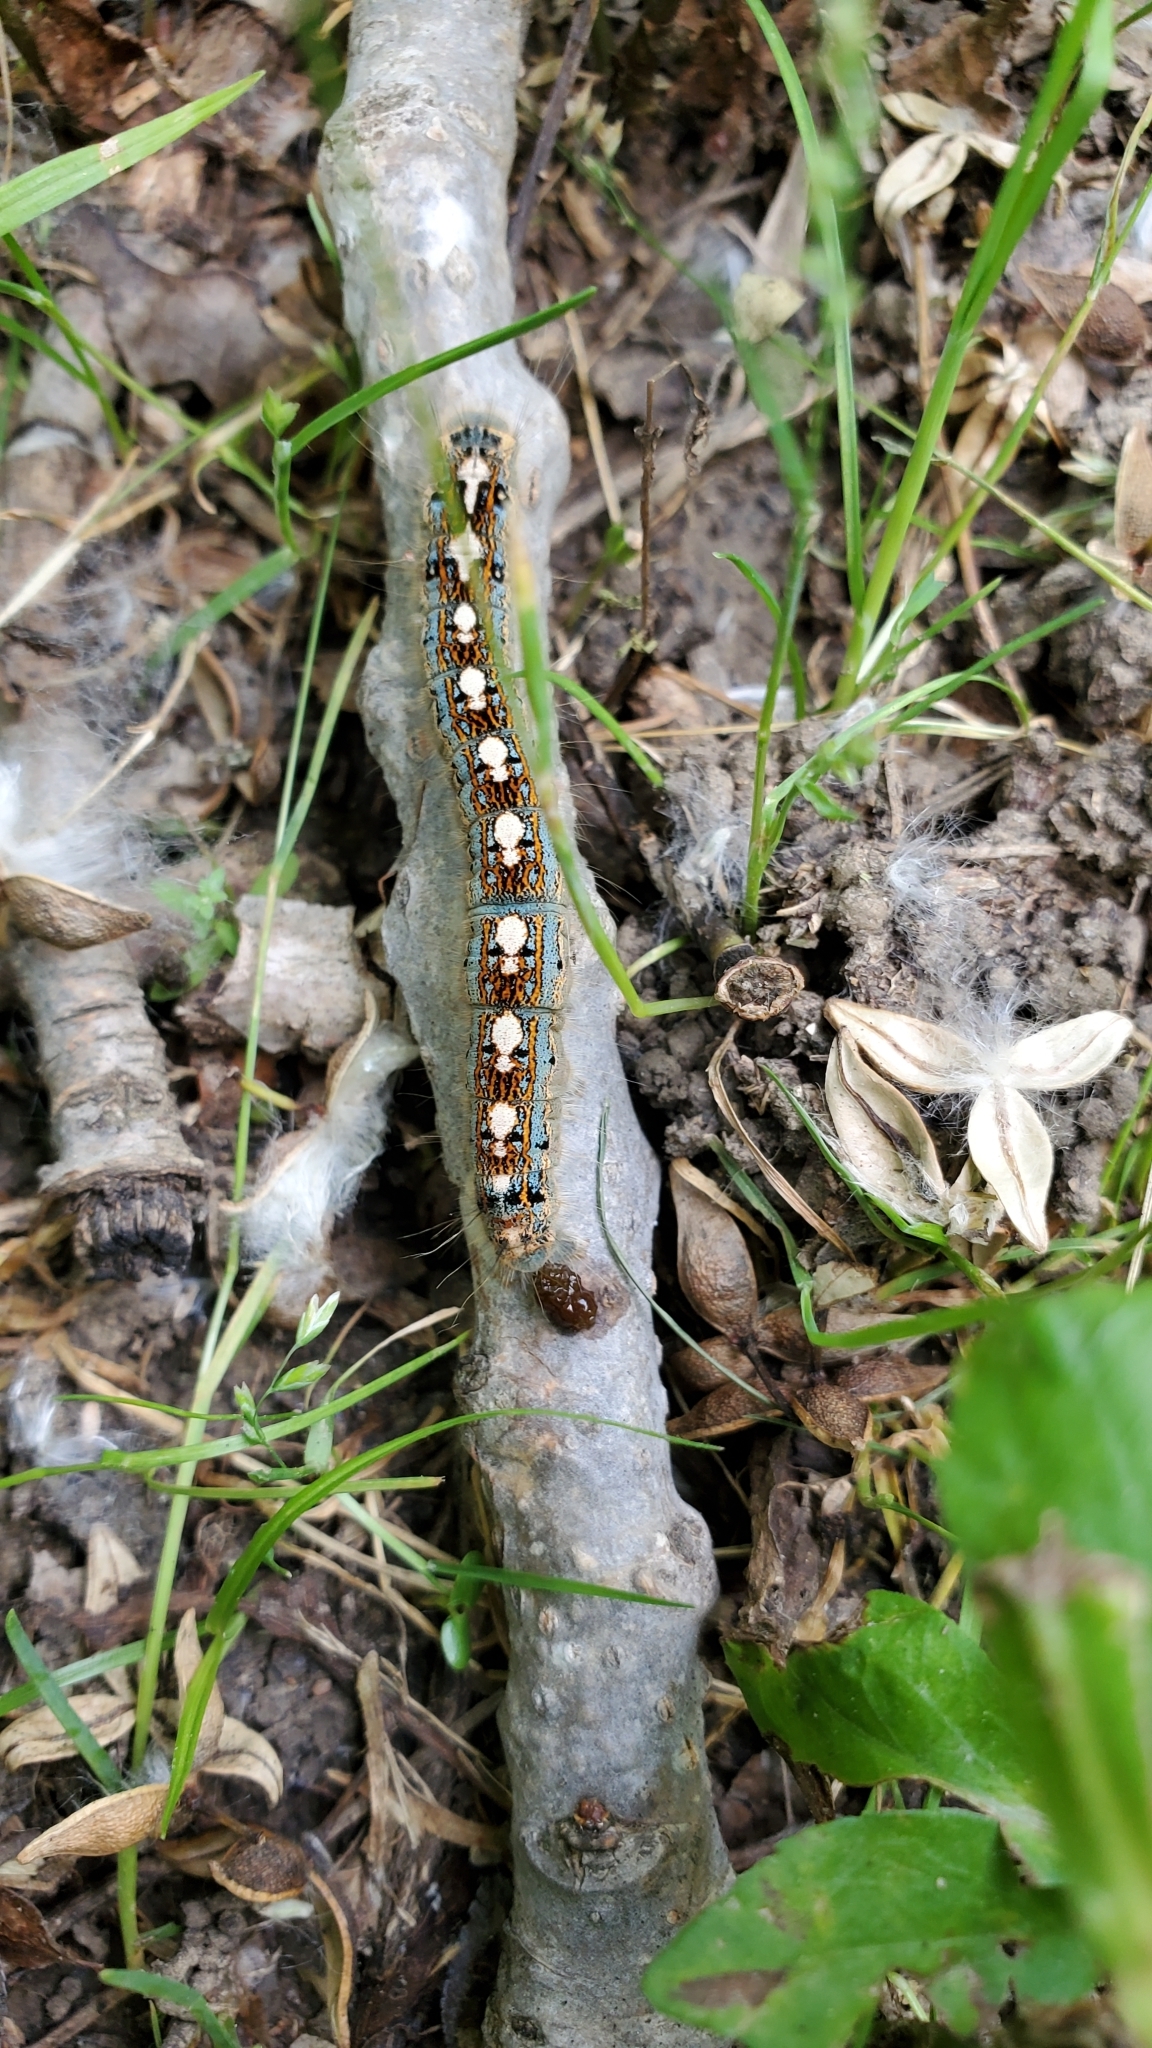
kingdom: Animalia
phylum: Arthropoda
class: Insecta
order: Lepidoptera
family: Lasiocampidae
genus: Malacosoma
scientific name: Malacosoma disstria
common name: Forest tent caterpillar
